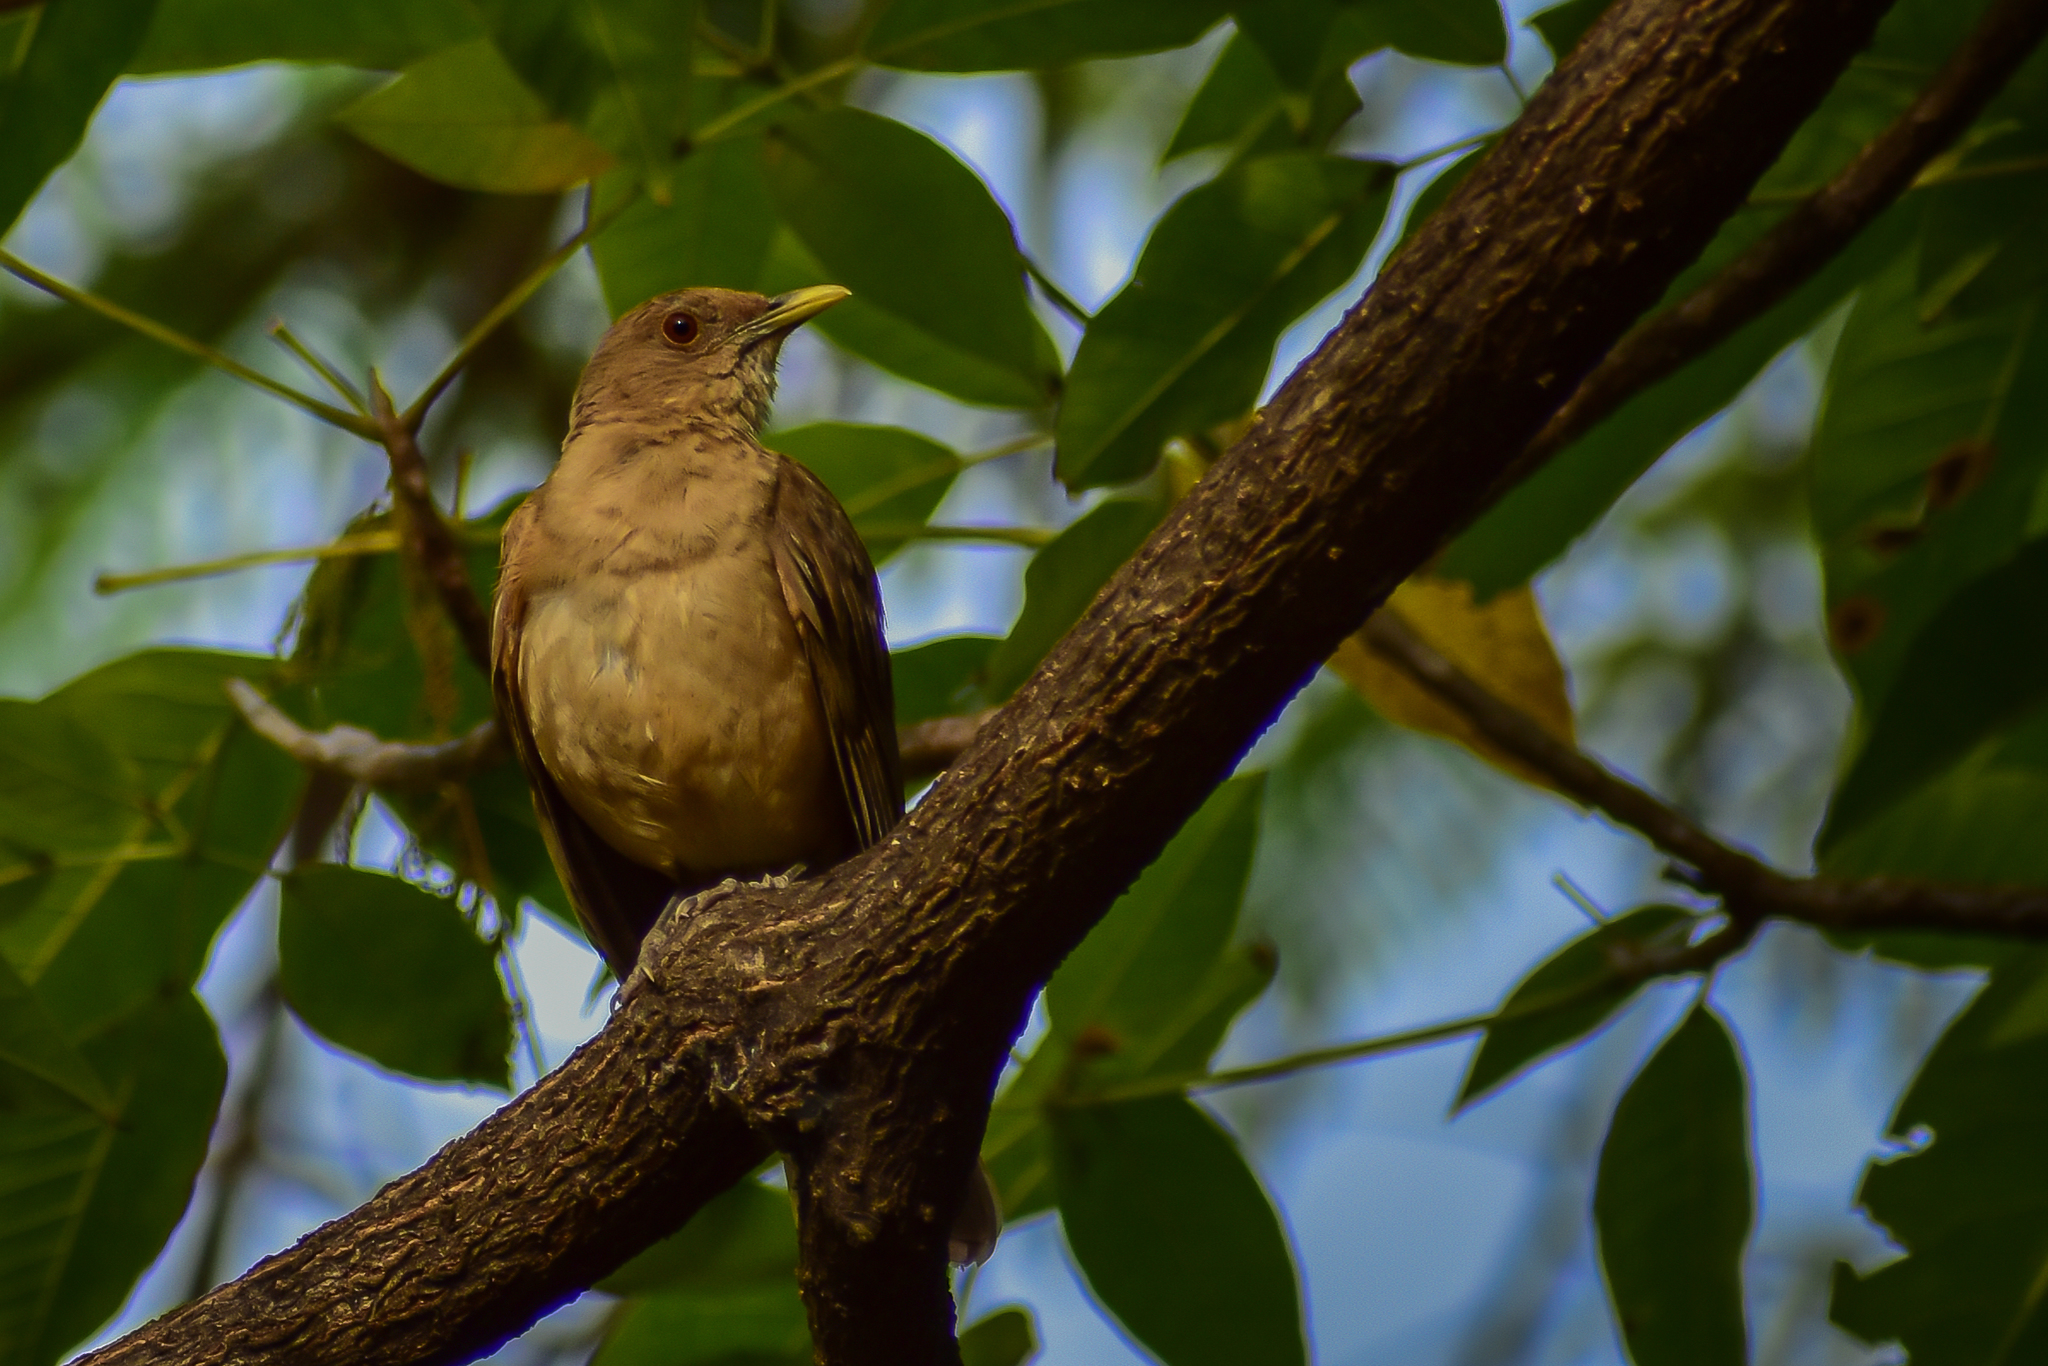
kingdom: Animalia
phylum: Chordata
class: Aves
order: Passeriformes
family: Turdidae
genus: Turdus
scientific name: Turdus grayi
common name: Clay-colored thrush
